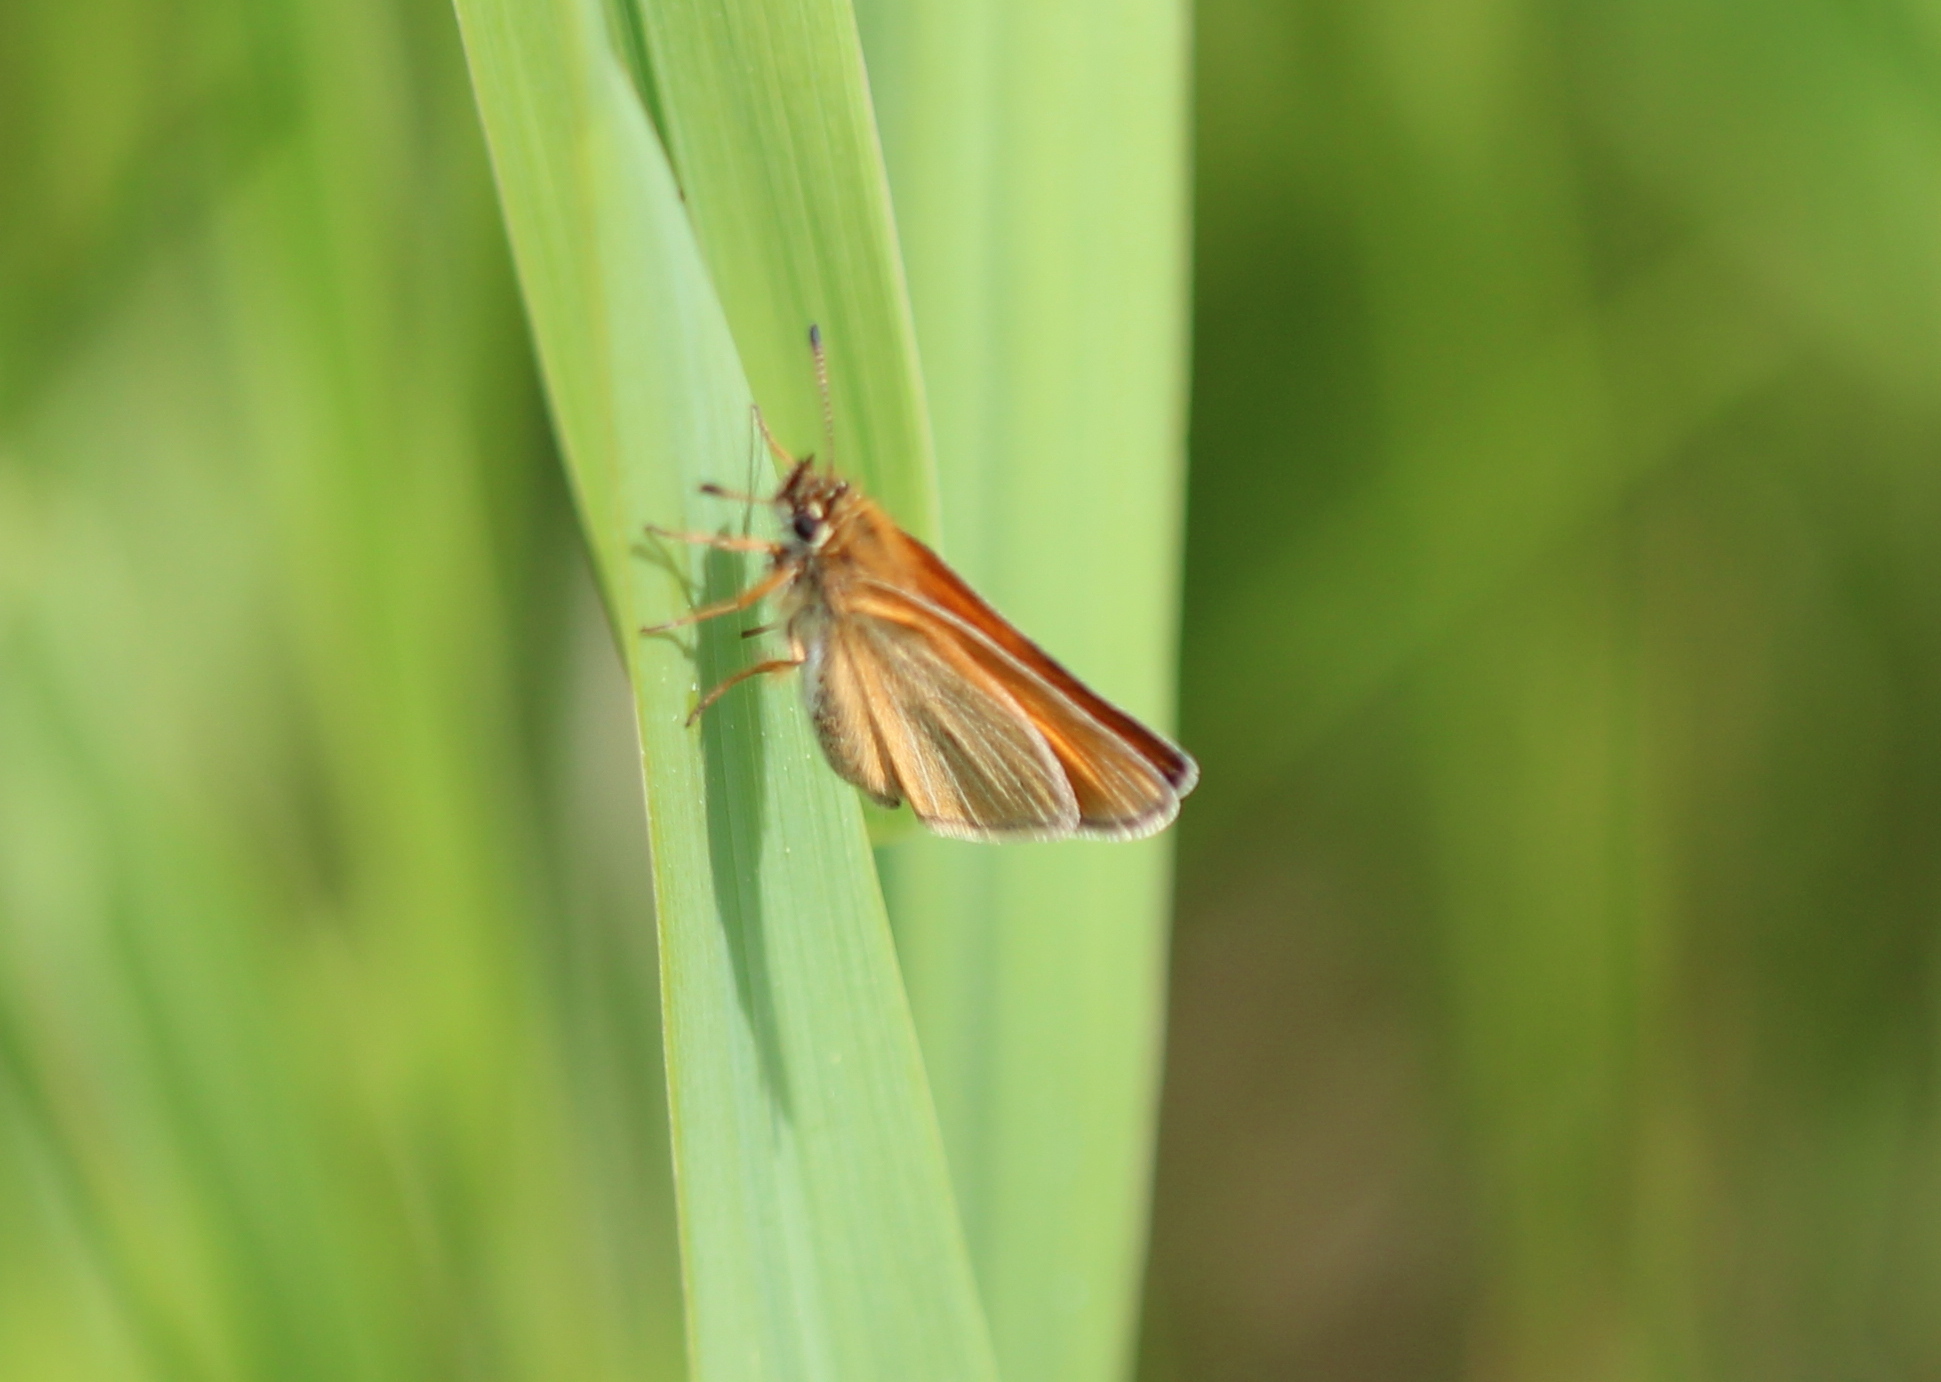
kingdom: Animalia
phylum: Arthropoda
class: Insecta
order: Lepidoptera
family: Hesperiidae
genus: Thymelicus
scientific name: Thymelicus lineola
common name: Essex skipper
